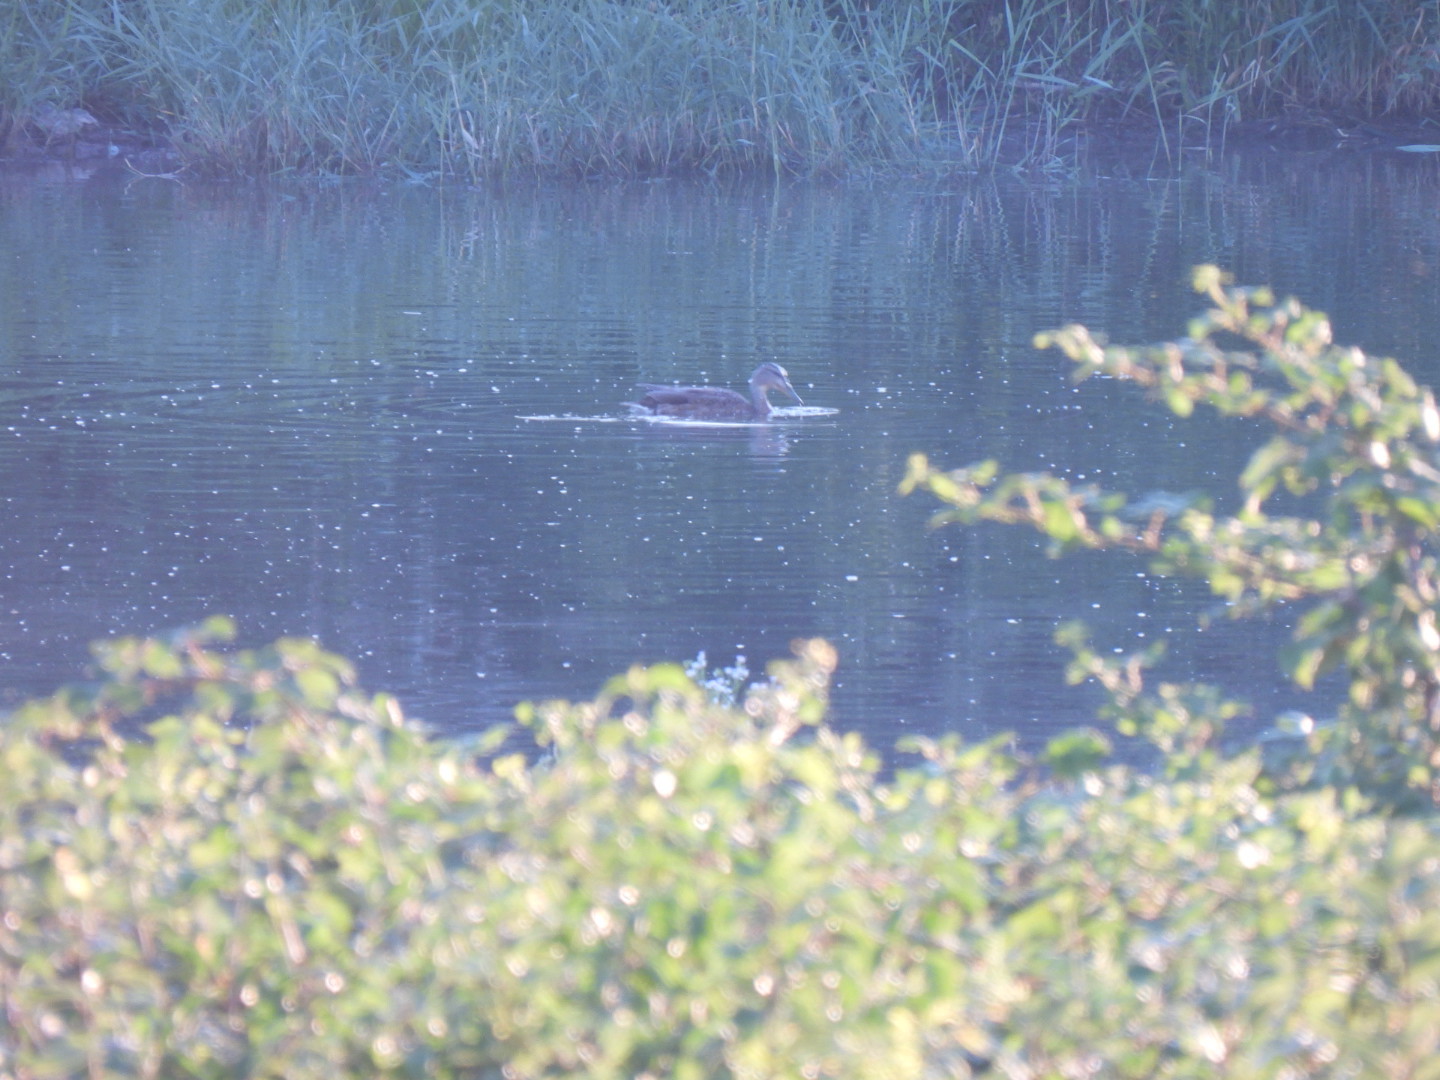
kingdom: Animalia
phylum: Chordata
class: Aves
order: Anseriformes
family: Anatidae
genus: Anas
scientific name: Anas platyrhynchos
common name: Mallard
